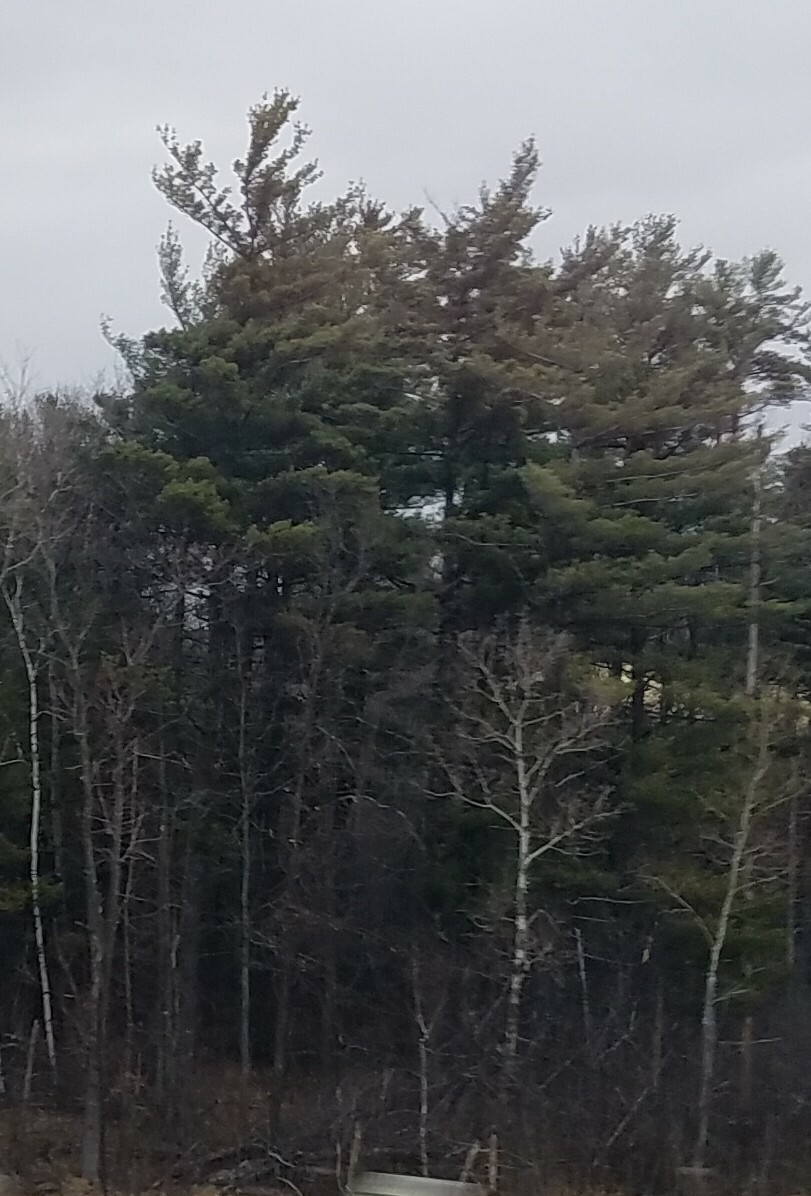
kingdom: Plantae
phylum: Tracheophyta
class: Pinopsida
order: Pinales
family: Pinaceae
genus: Pinus
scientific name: Pinus strobus
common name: Weymouth pine
